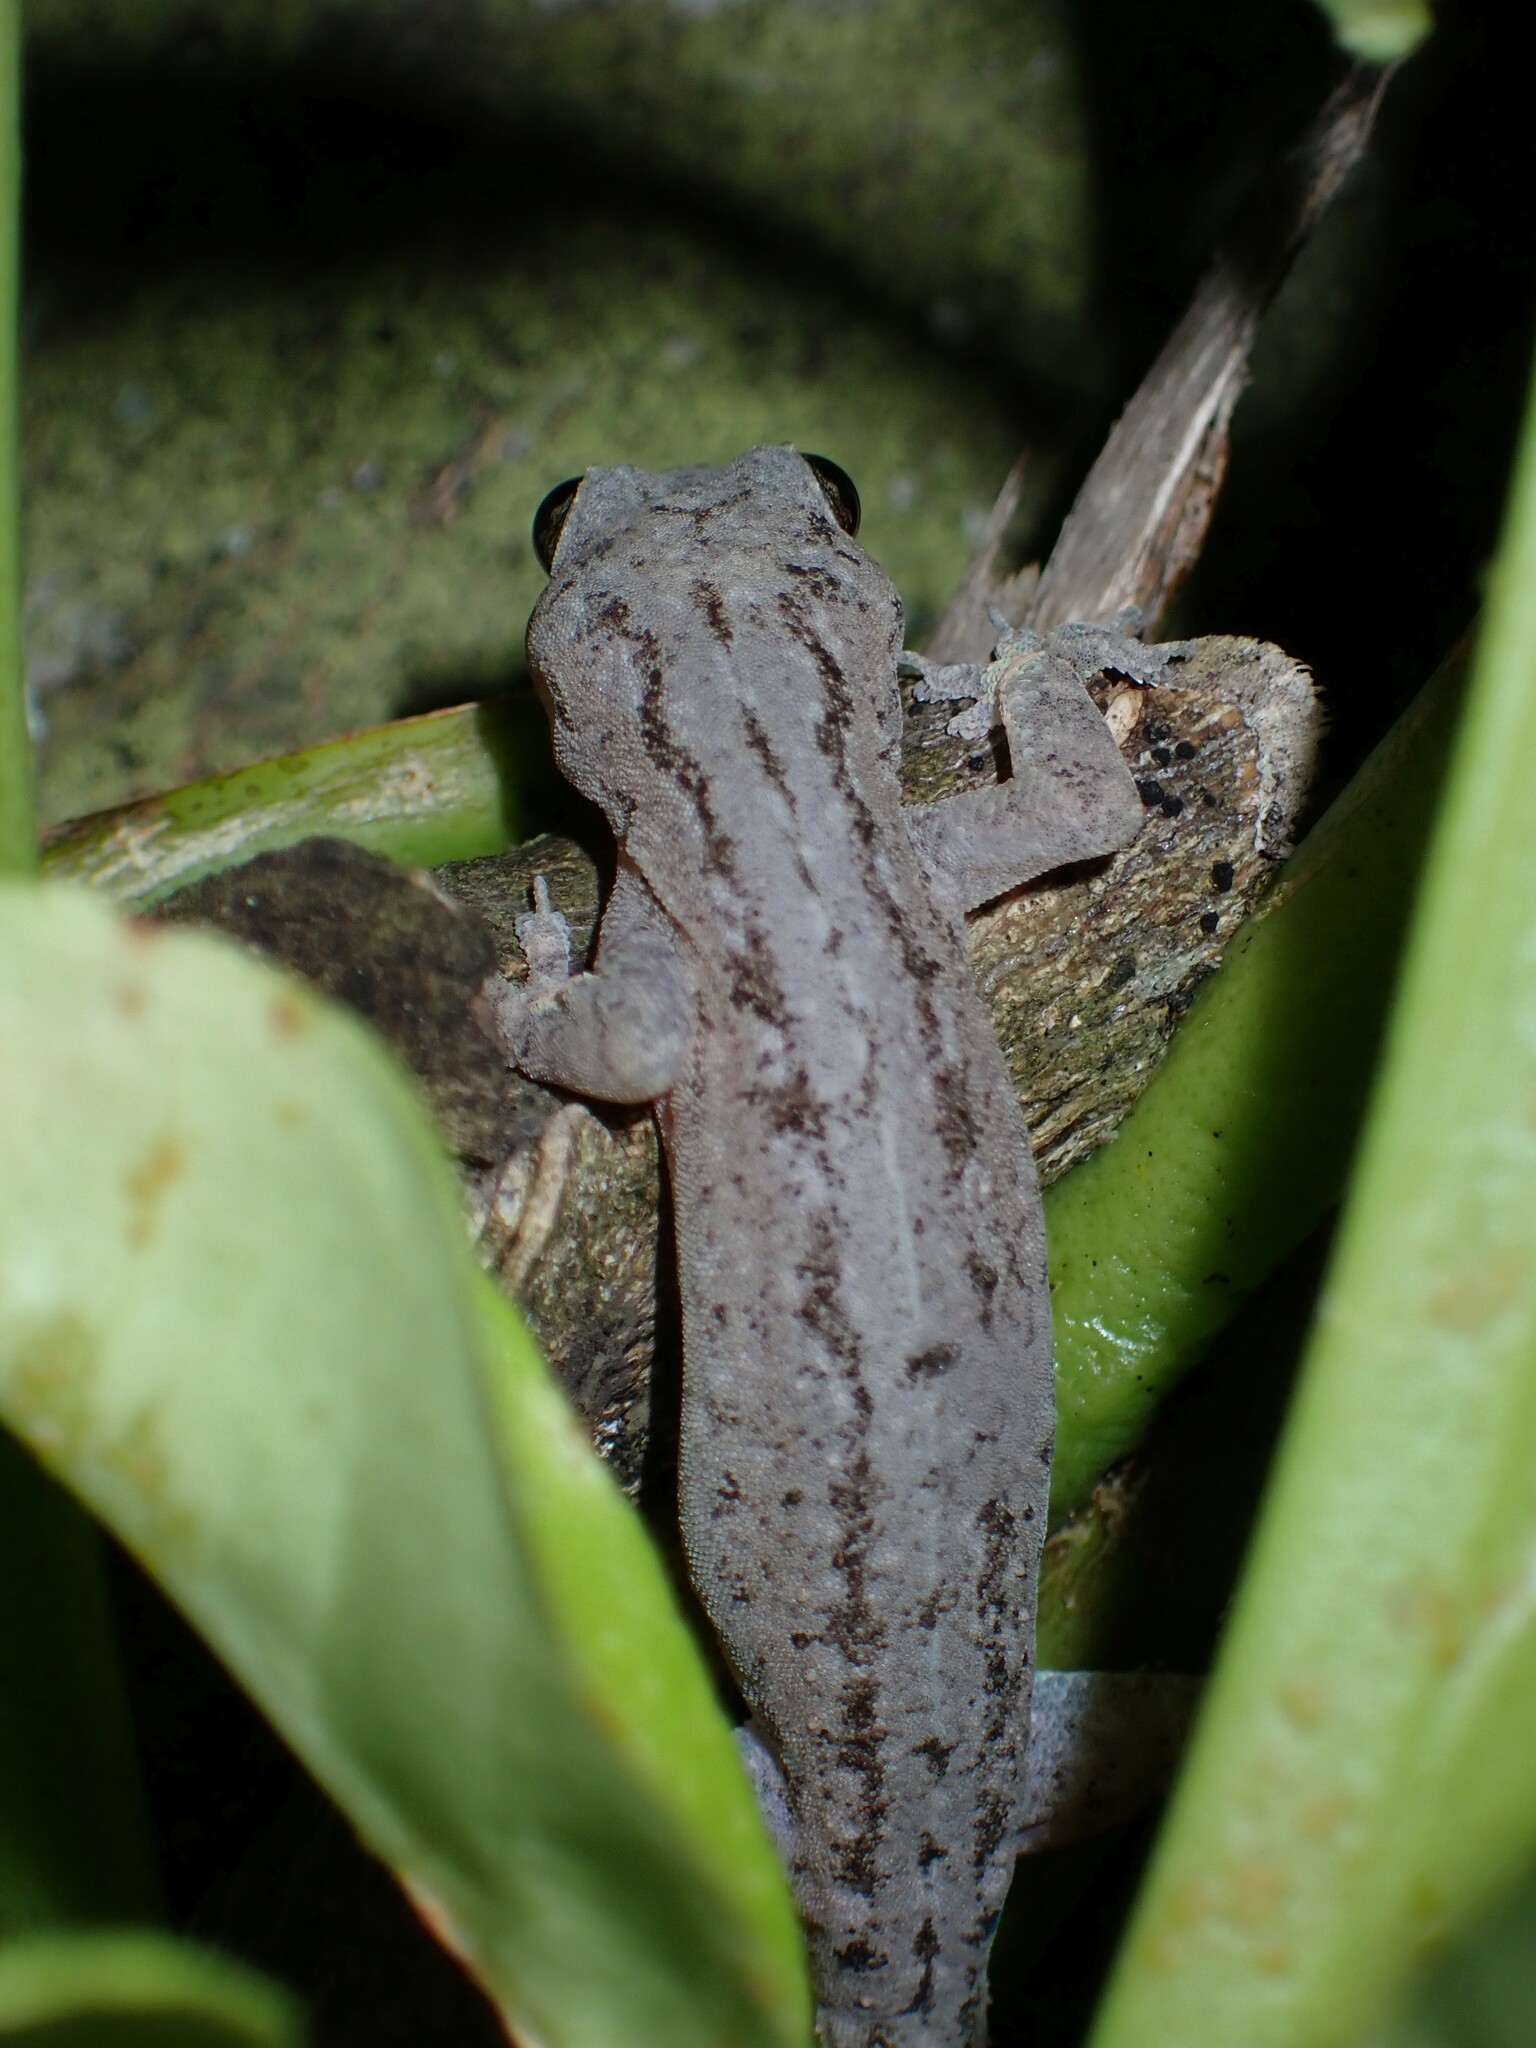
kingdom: Animalia
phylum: Chordata
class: Squamata
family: Gekkonidae
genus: Hemidactylus
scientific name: Hemidactylus frenatus
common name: Common house gecko
